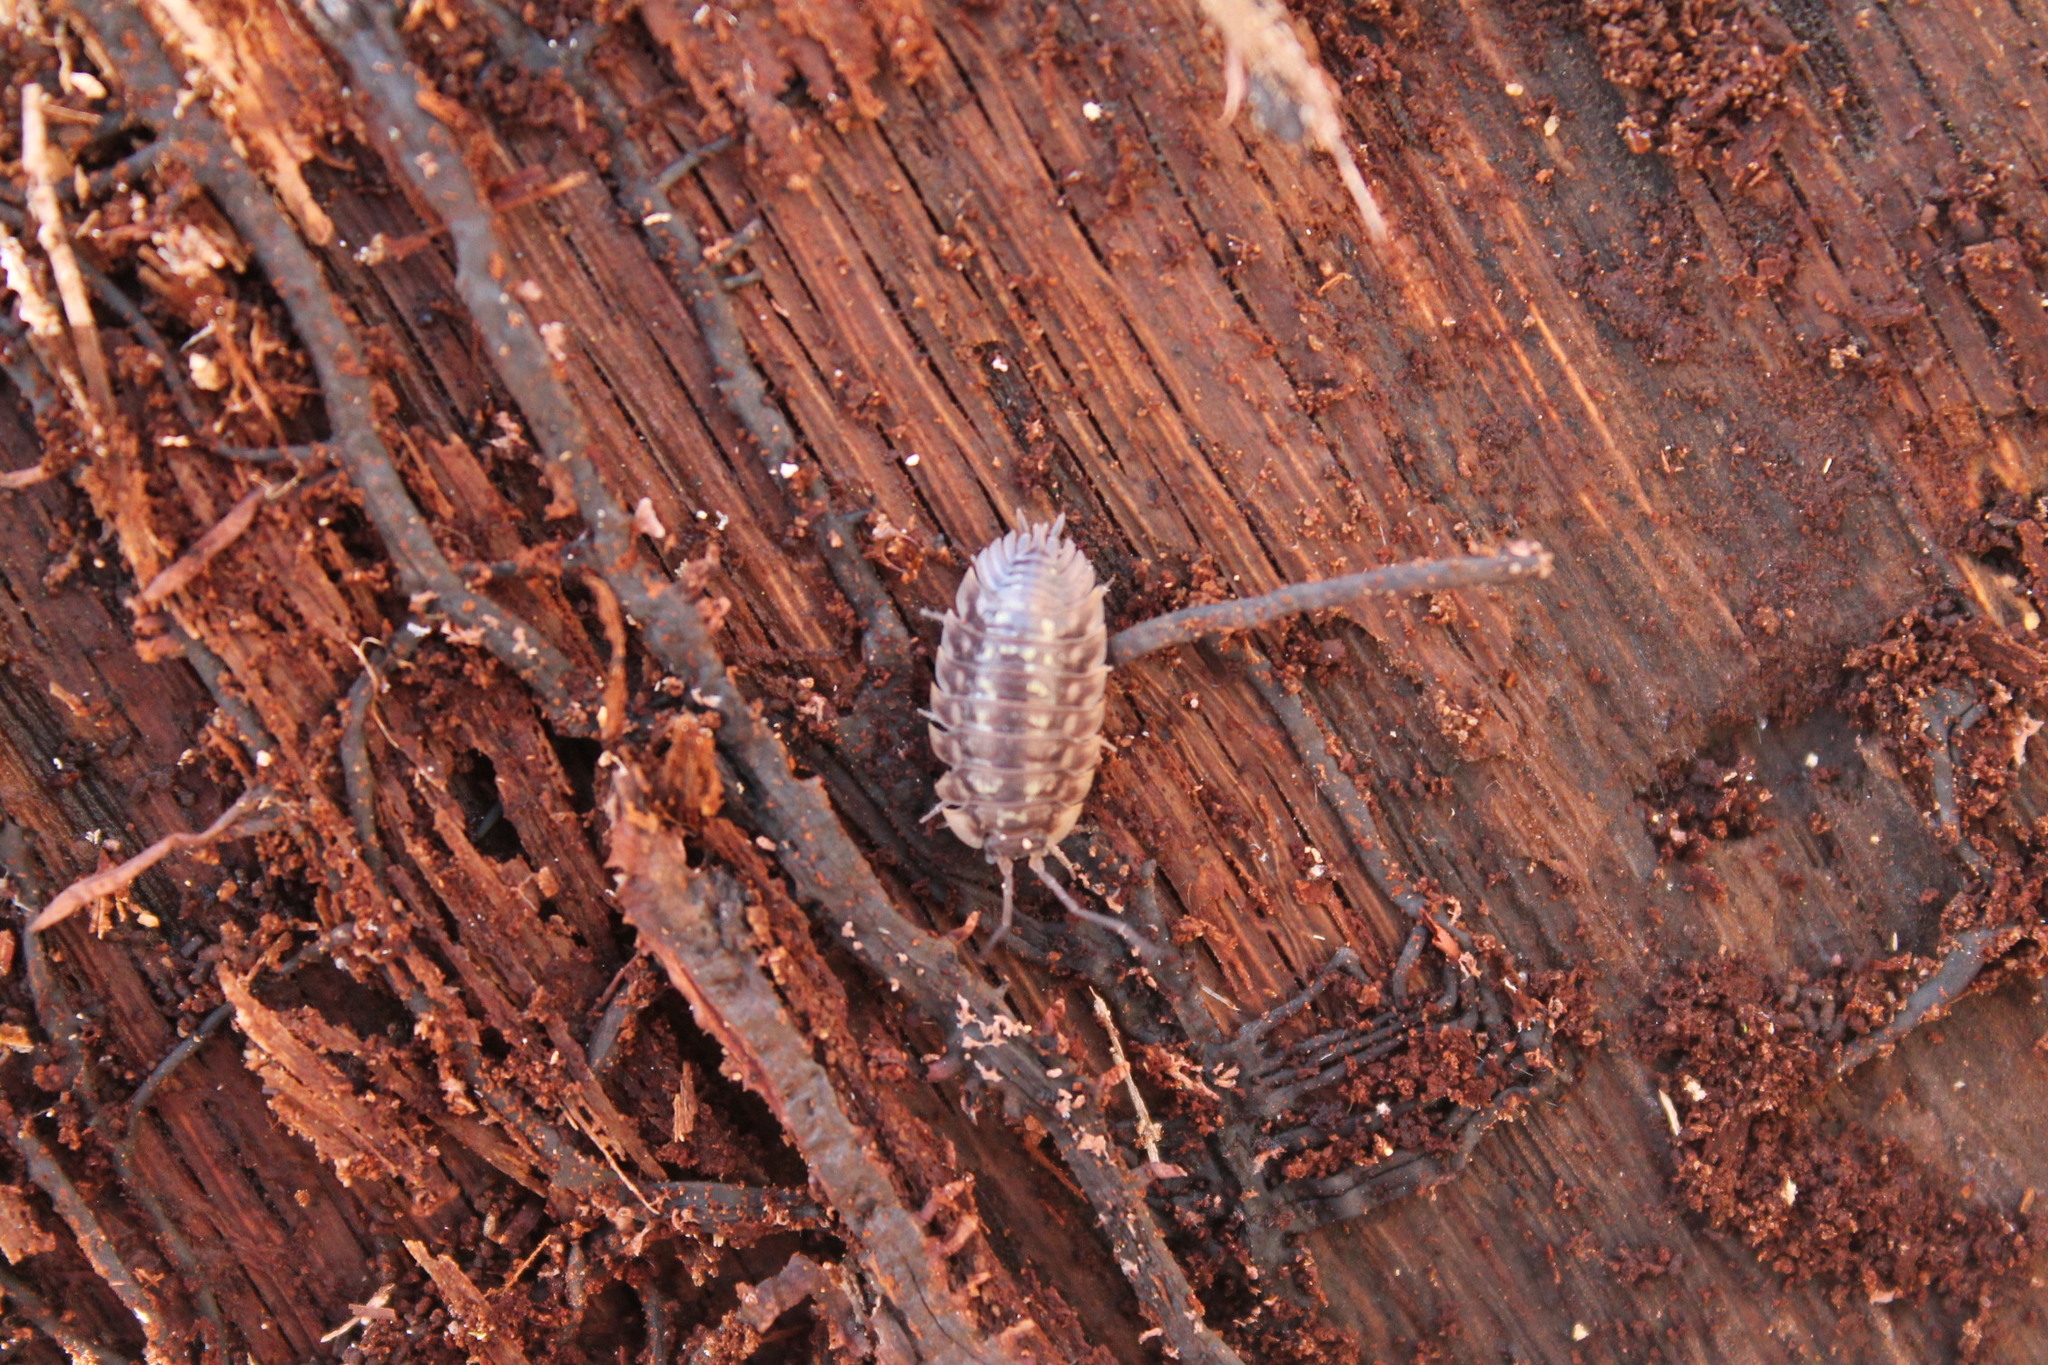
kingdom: Animalia
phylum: Arthropoda
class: Malacostraca
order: Isopoda
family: Oniscidae
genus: Oniscus
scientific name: Oniscus asellus
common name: Common shiny woodlouse
